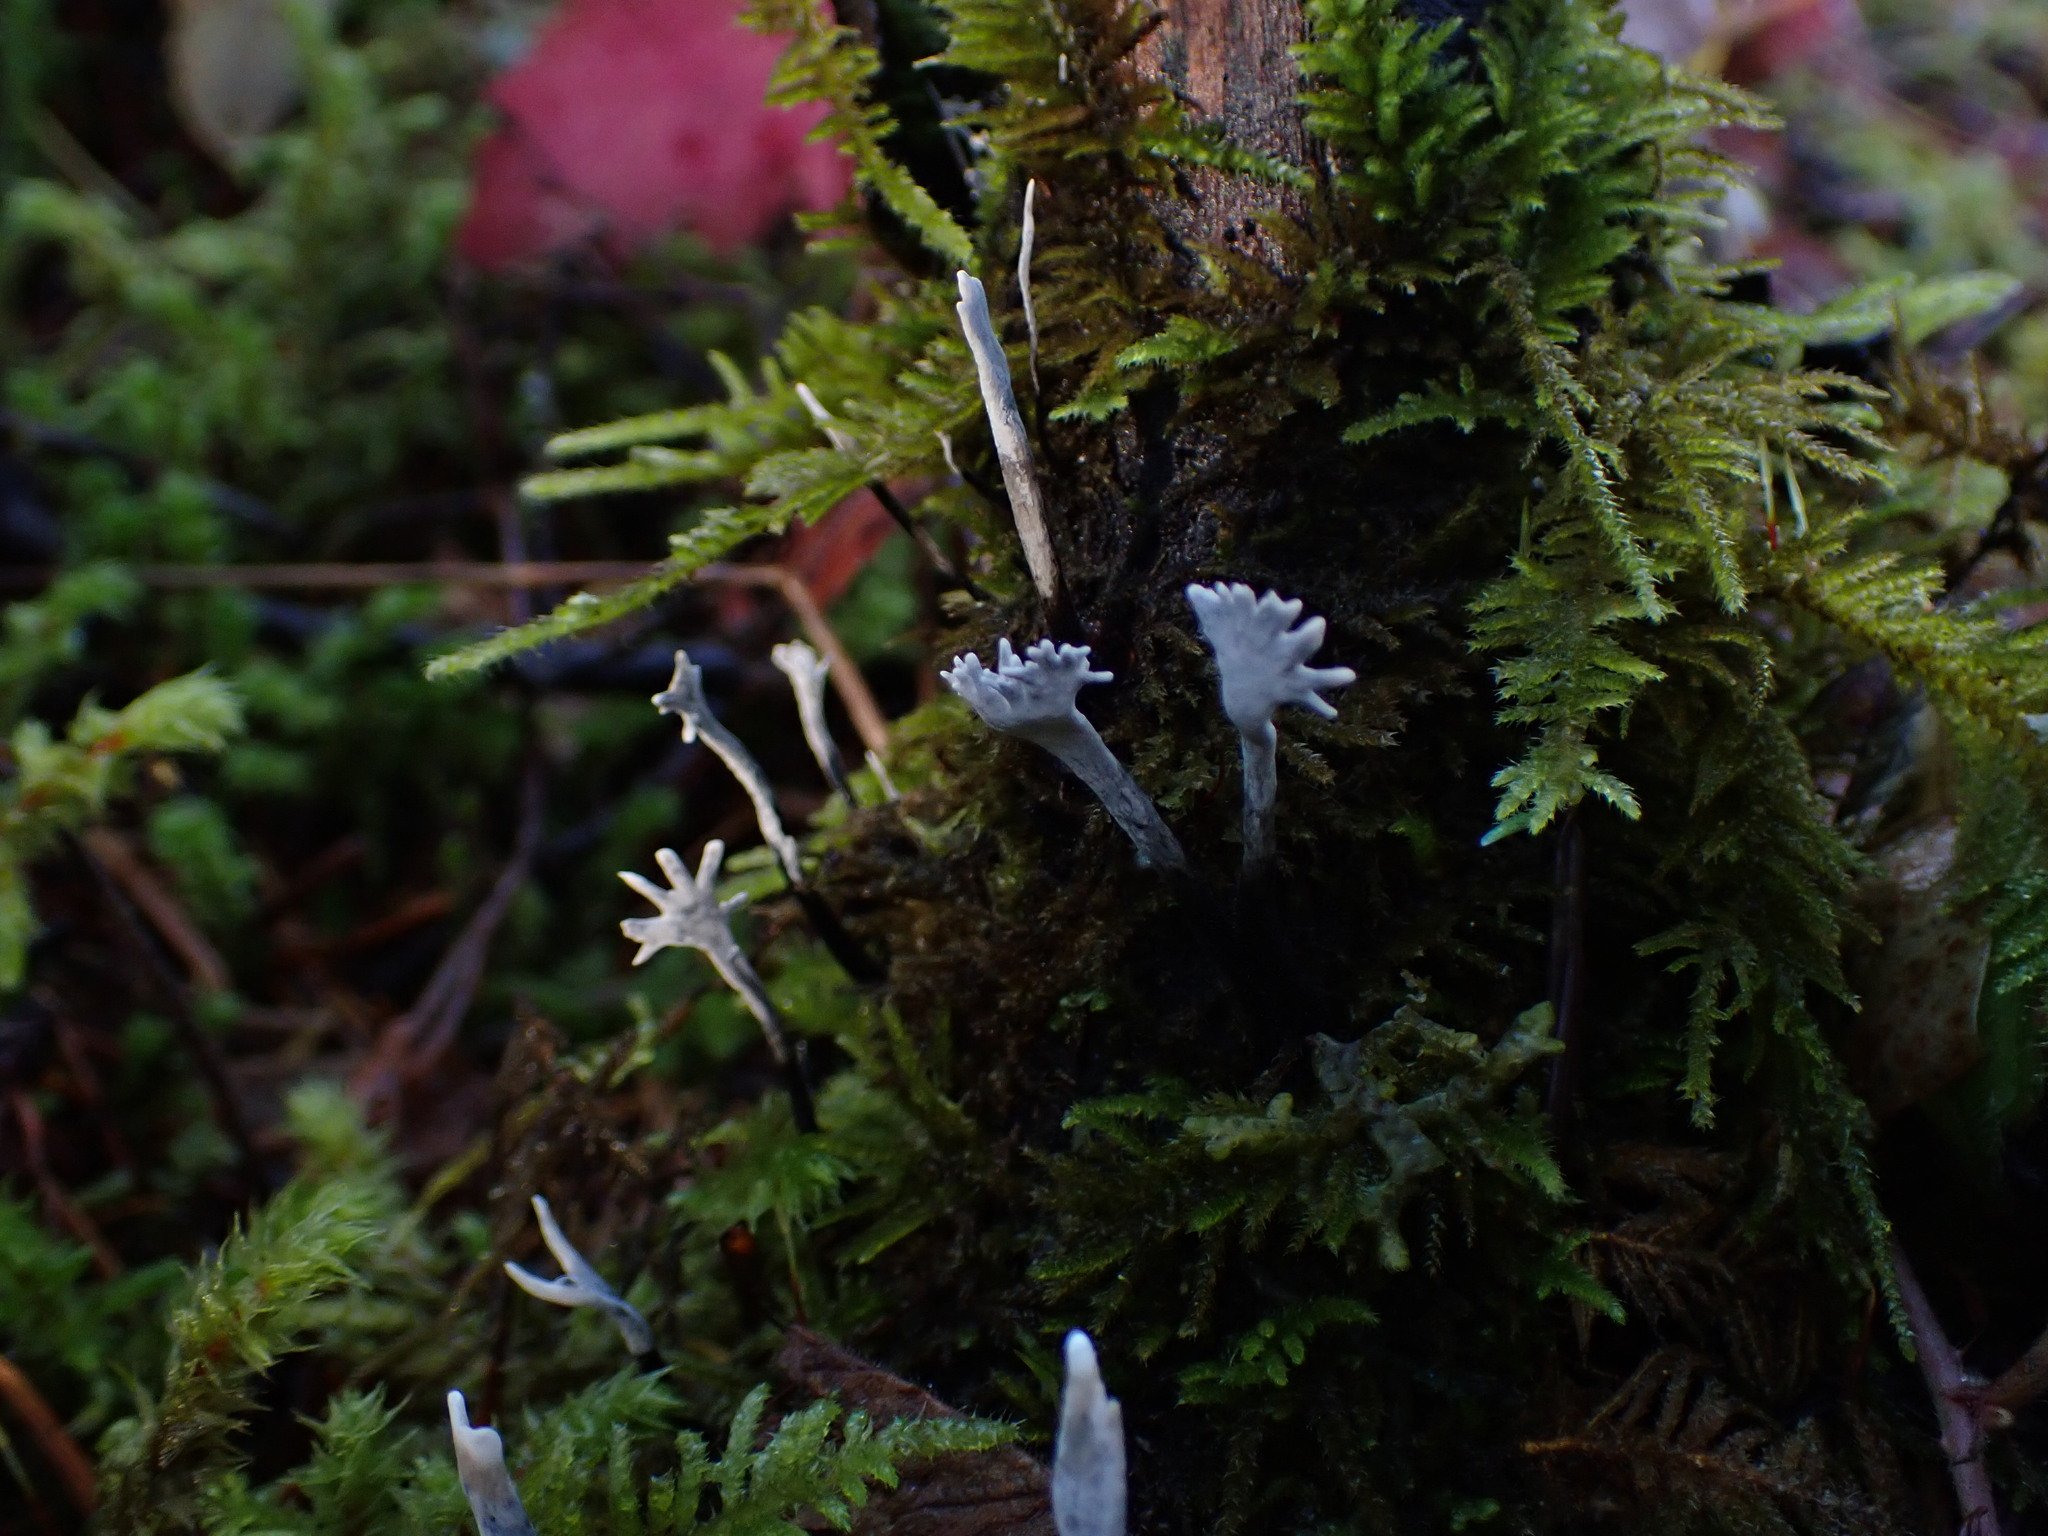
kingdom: Fungi
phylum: Ascomycota
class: Sordariomycetes
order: Xylariales
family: Xylariaceae
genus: Xylaria
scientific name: Xylaria hypoxylon
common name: Candle-snuff fungus
